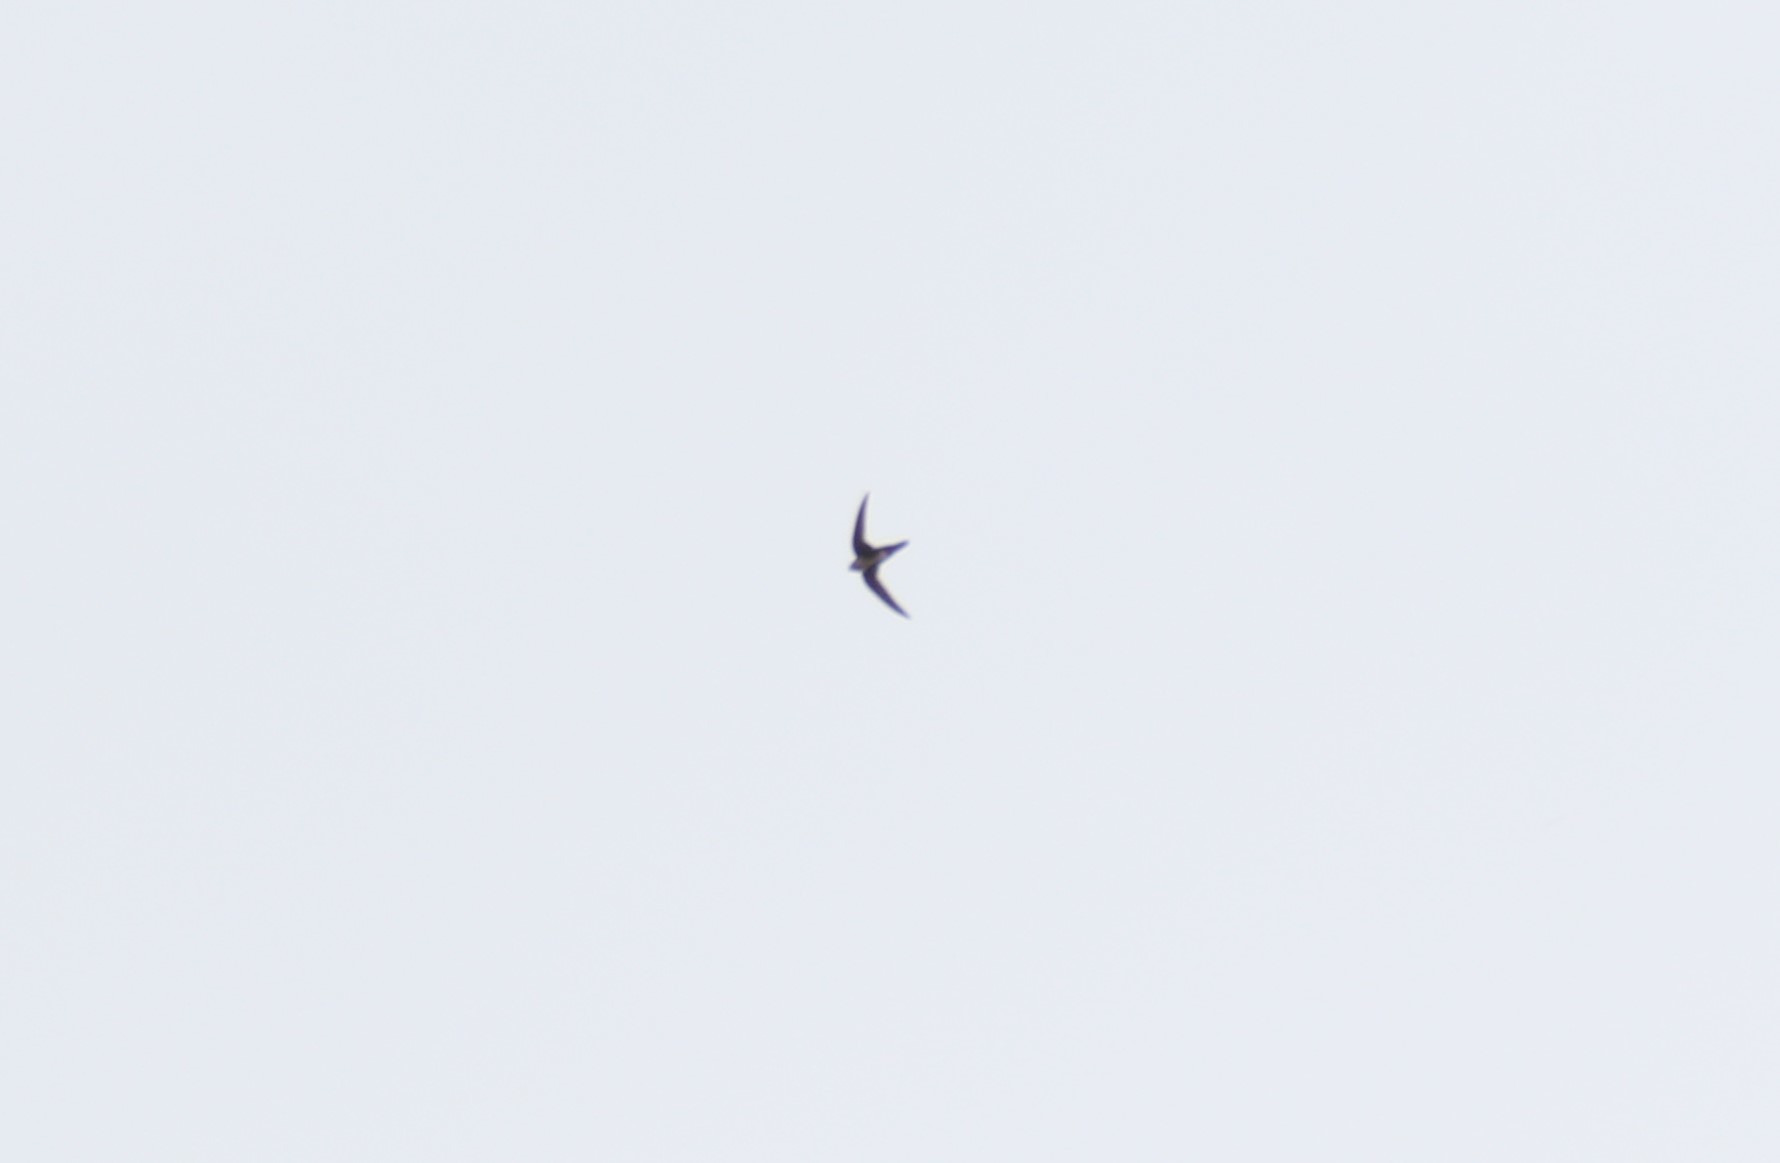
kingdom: Animalia
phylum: Chordata
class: Aves
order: Apodiformes
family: Apodidae
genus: Chaetura
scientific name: Chaetura vauxi
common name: Vaux's swift
